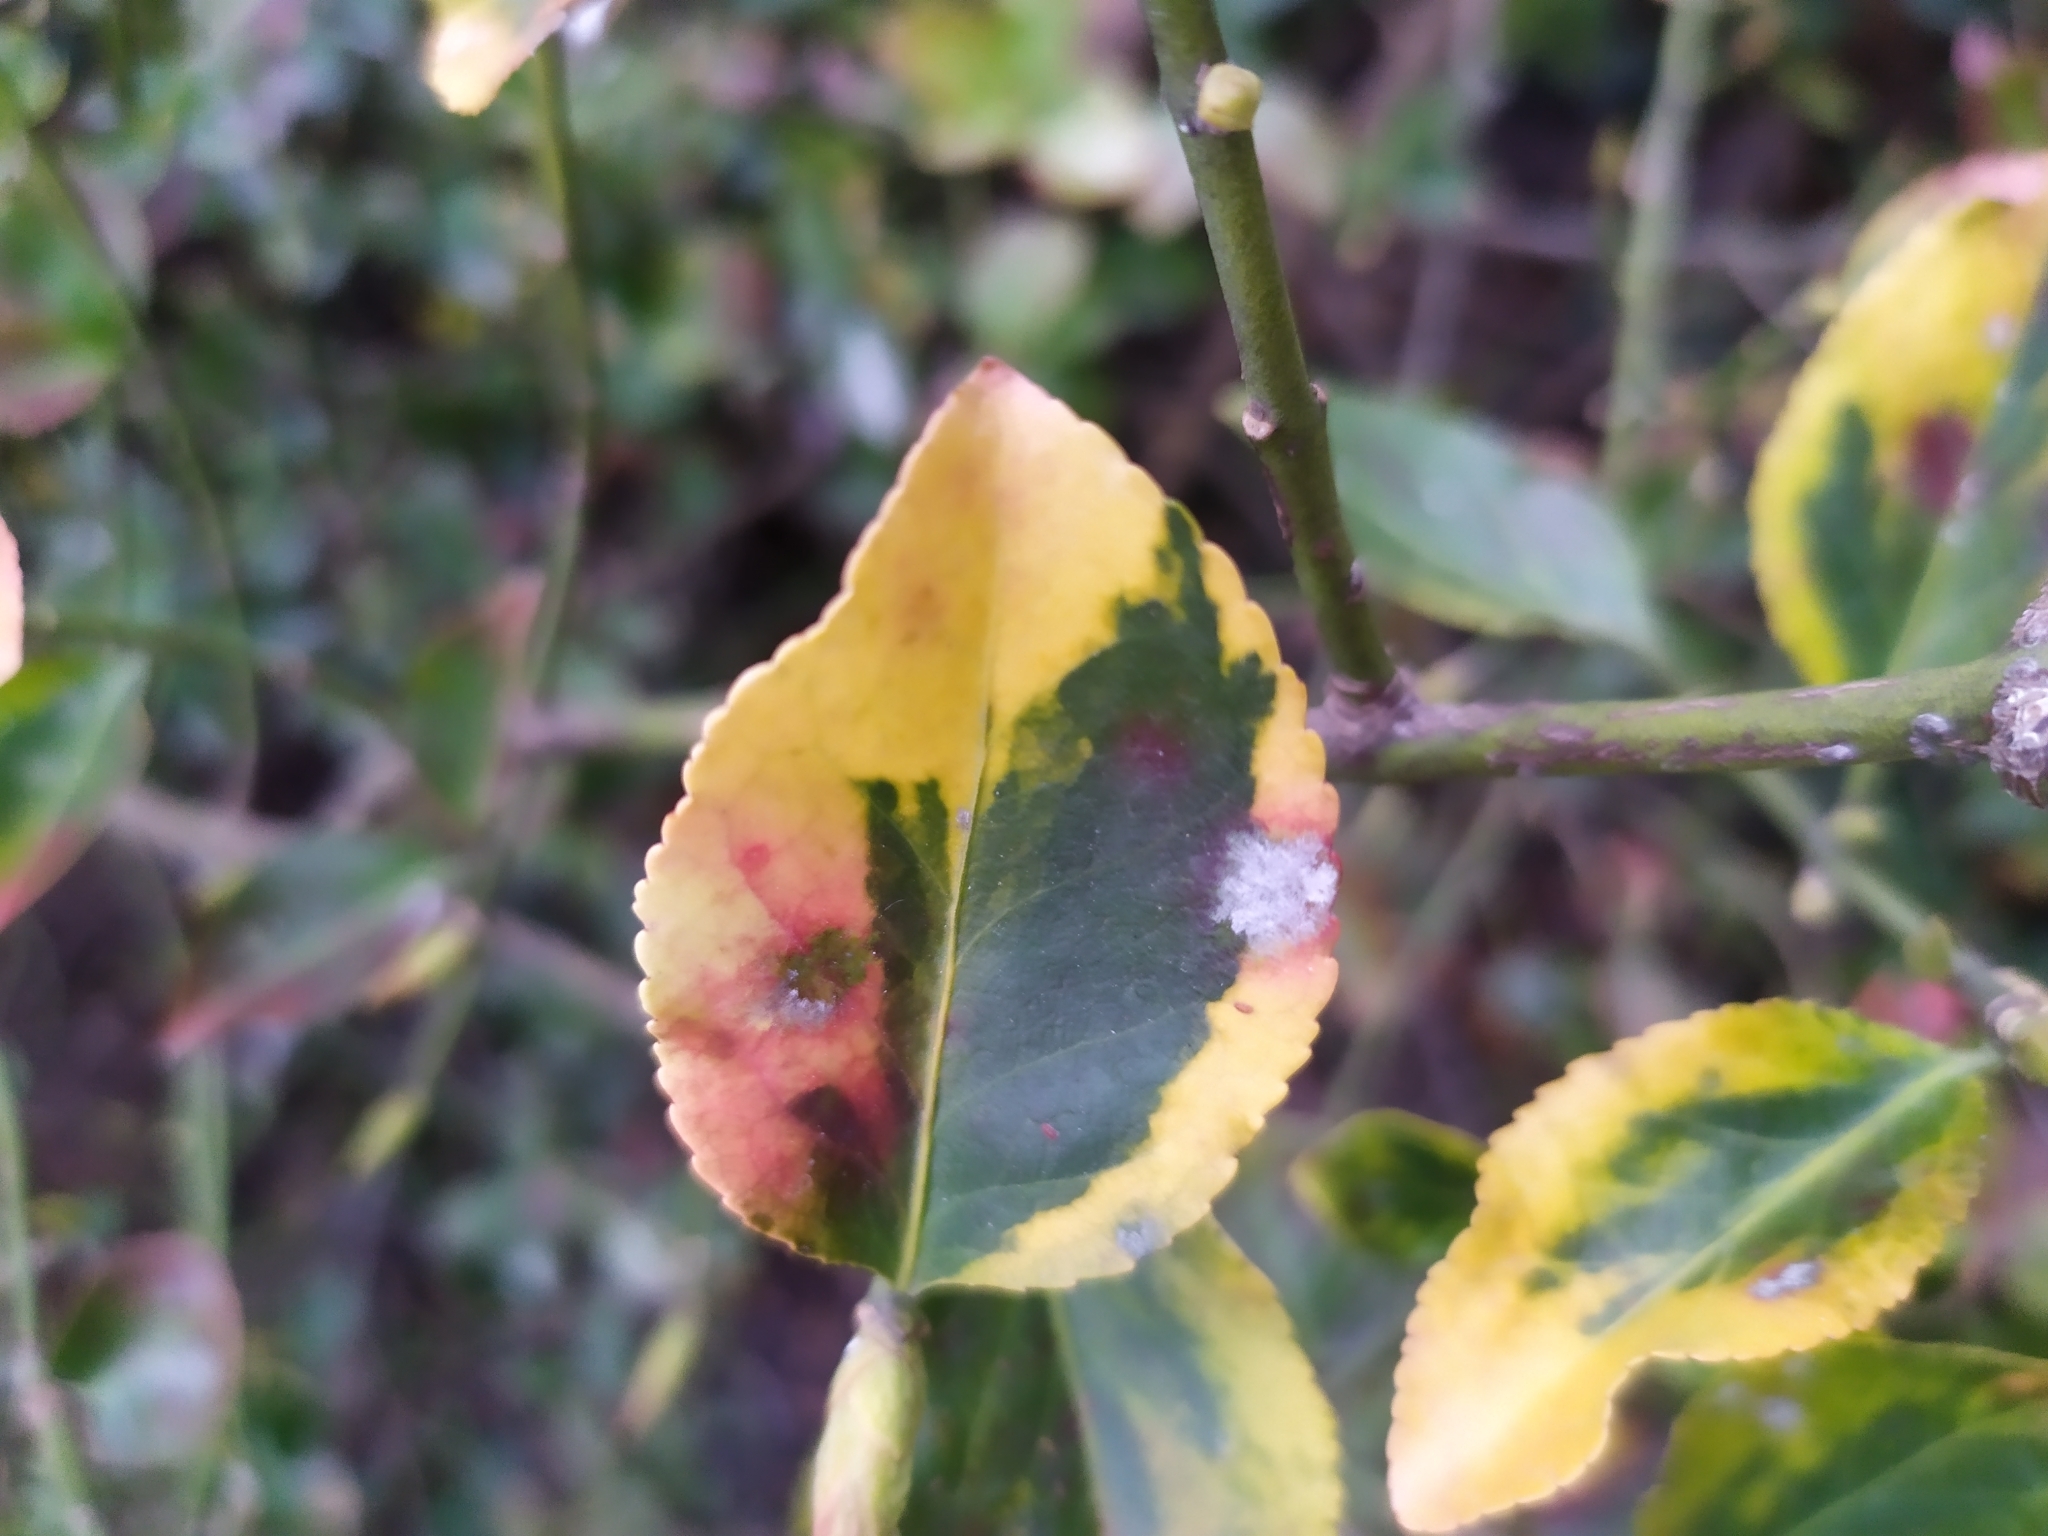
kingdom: Animalia
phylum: Arthropoda
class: Insecta
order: Hemiptera
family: Diaspididae
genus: Unaspis
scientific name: Unaspis euonymi
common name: Euonymus scale
